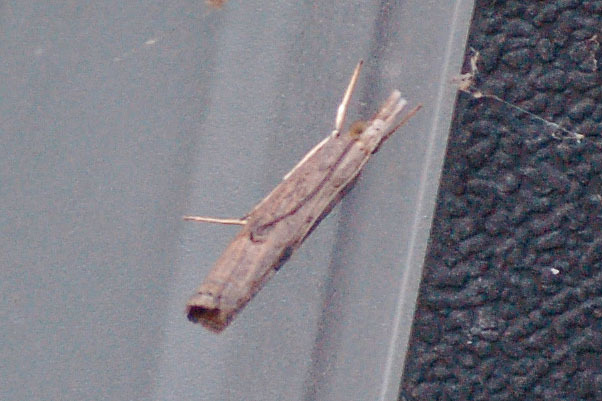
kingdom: Animalia
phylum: Arthropoda
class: Insecta
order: Lepidoptera
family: Crambidae
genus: Parapediasia
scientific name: Parapediasia teterellus
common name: Bluegrass webworm moth
